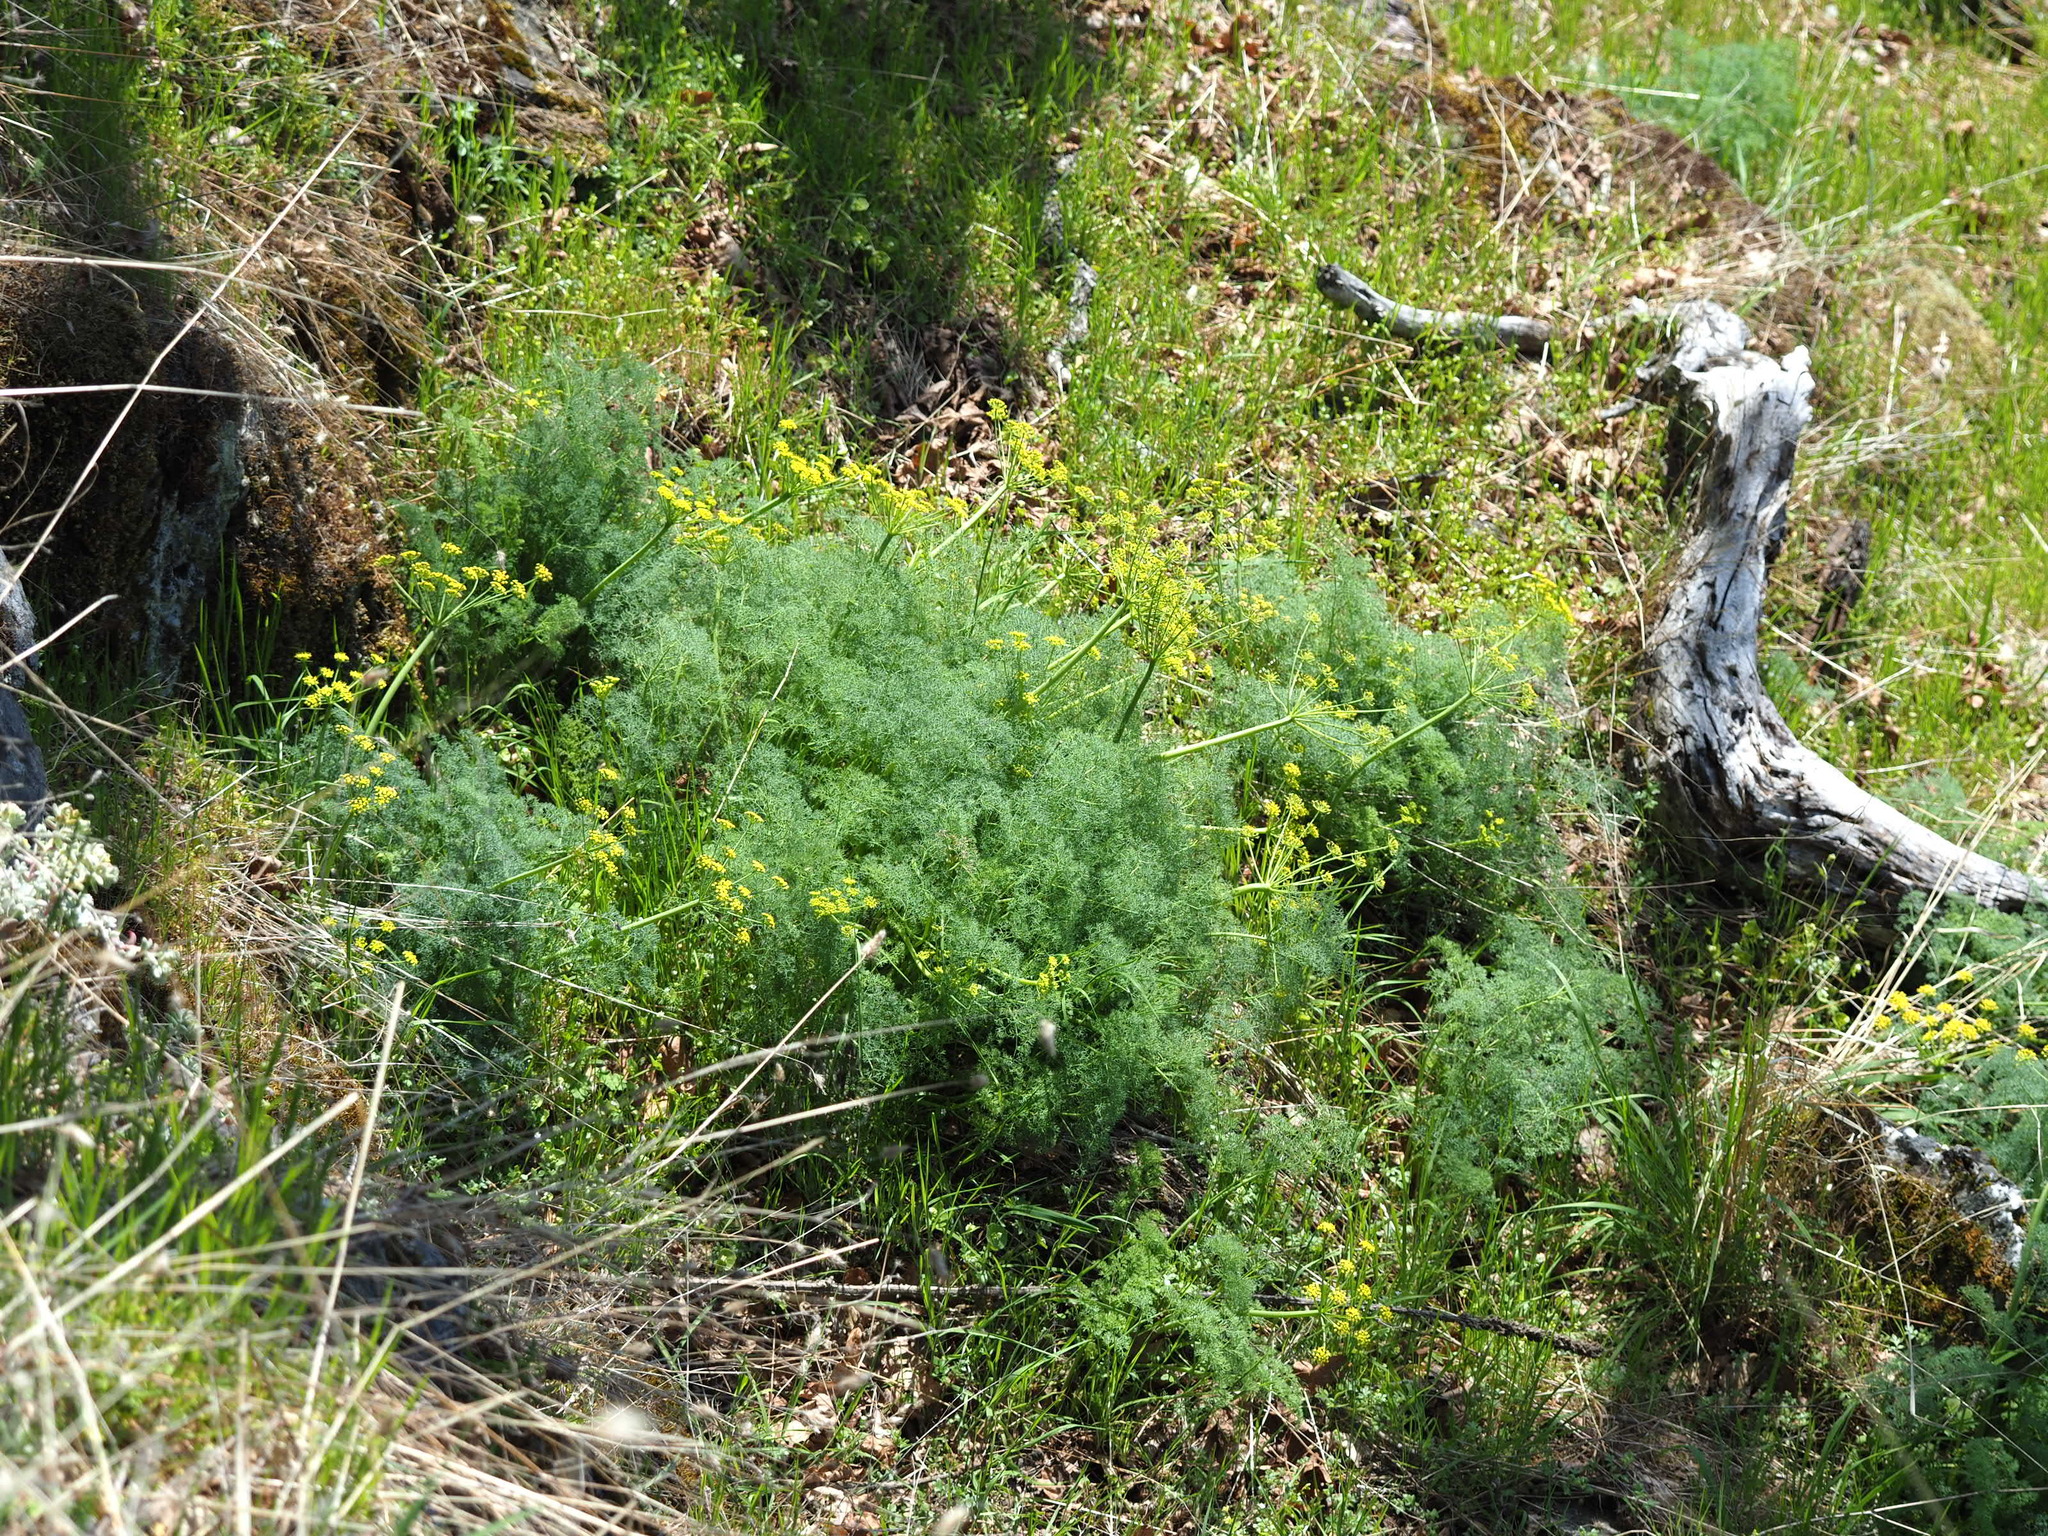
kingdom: Plantae
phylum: Tracheophyta
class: Magnoliopsida
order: Apiales
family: Apiaceae
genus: Lomatium
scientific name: Lomatium papilioniferum
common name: Butterfly lomatium
